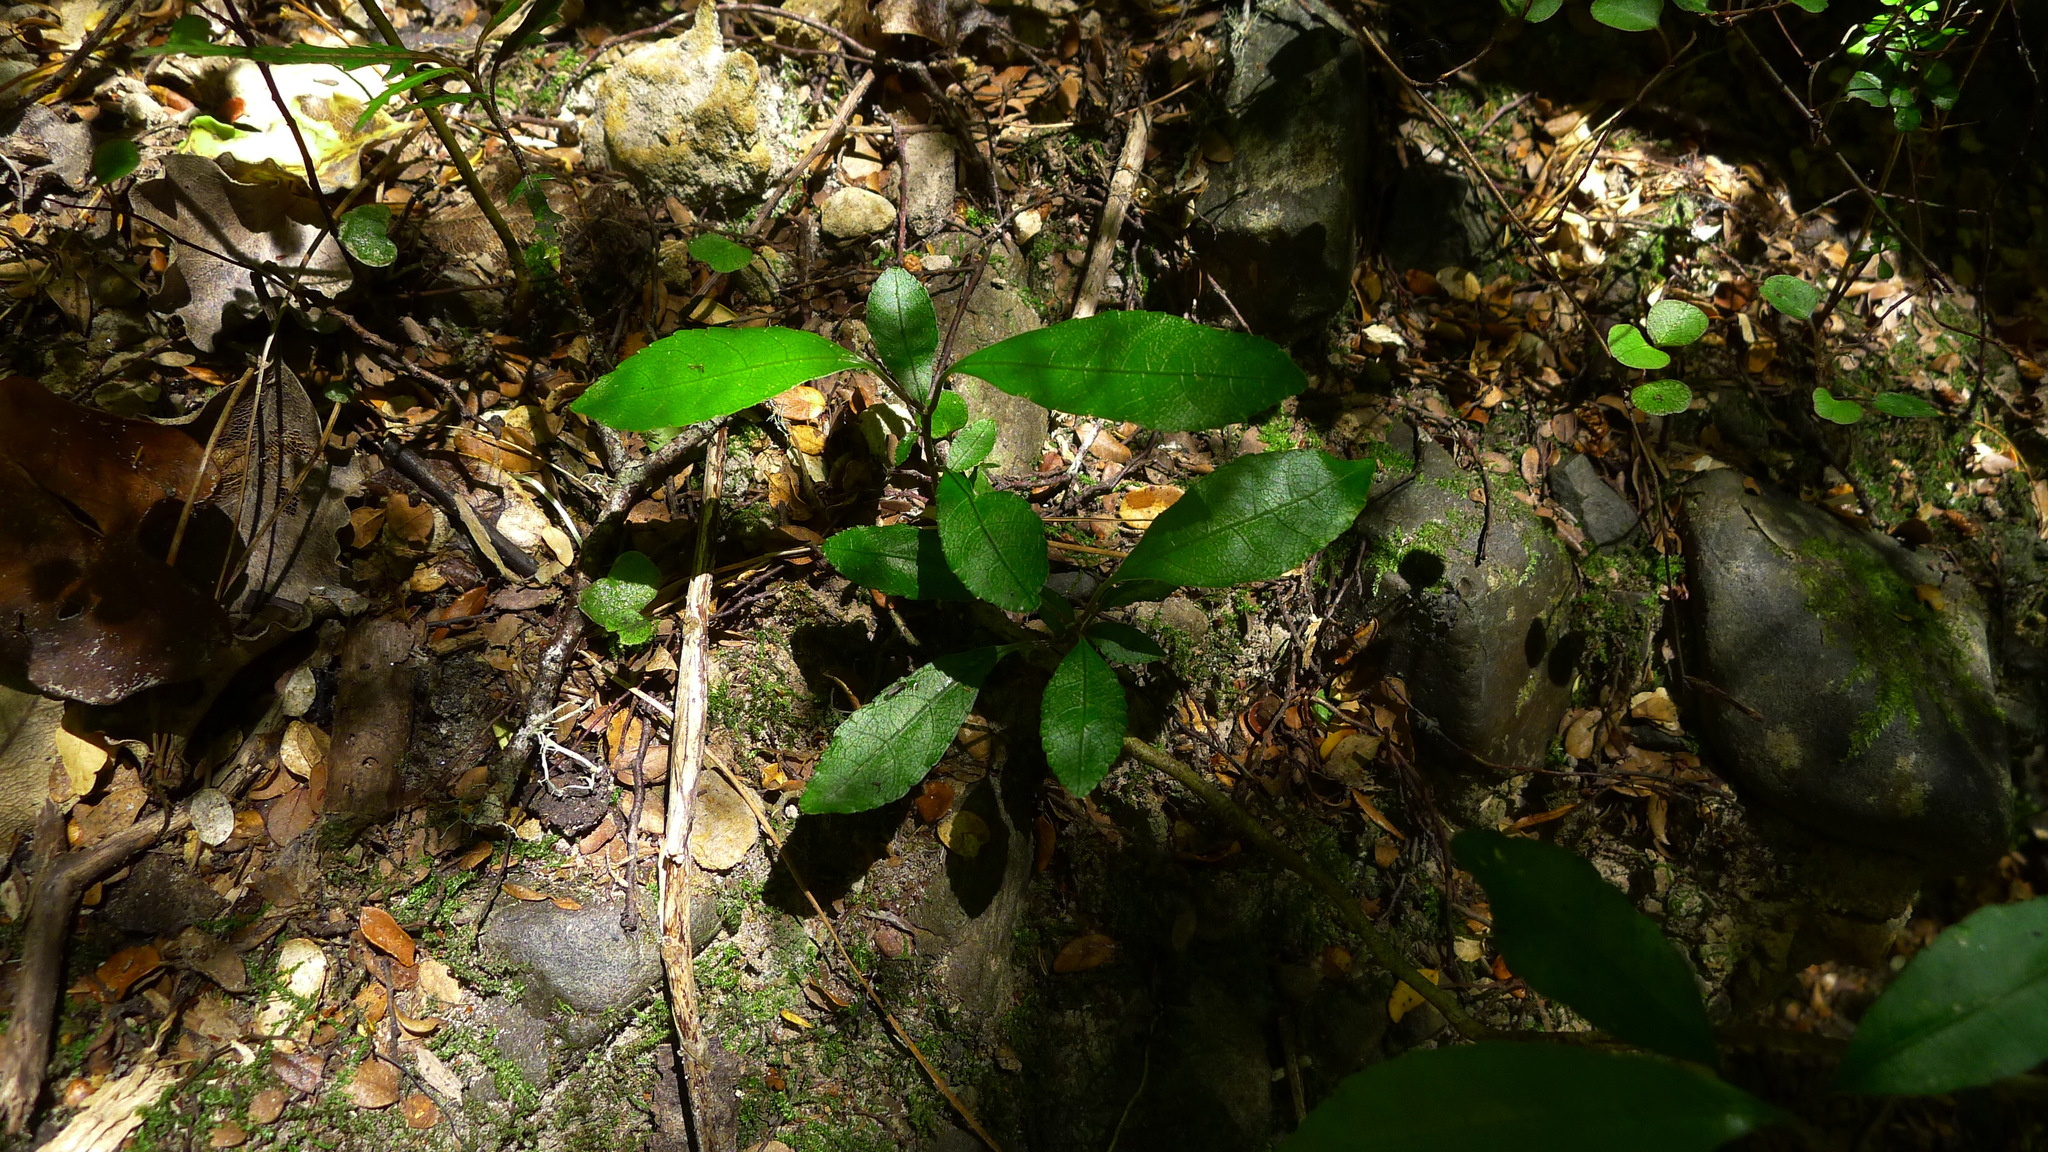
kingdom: Plantae
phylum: Tracheophyta
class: Magnoliopsida
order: Malpighiales
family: Violaceae
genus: Melicytus
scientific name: Melicytus ramiflorus
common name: Mahoe
